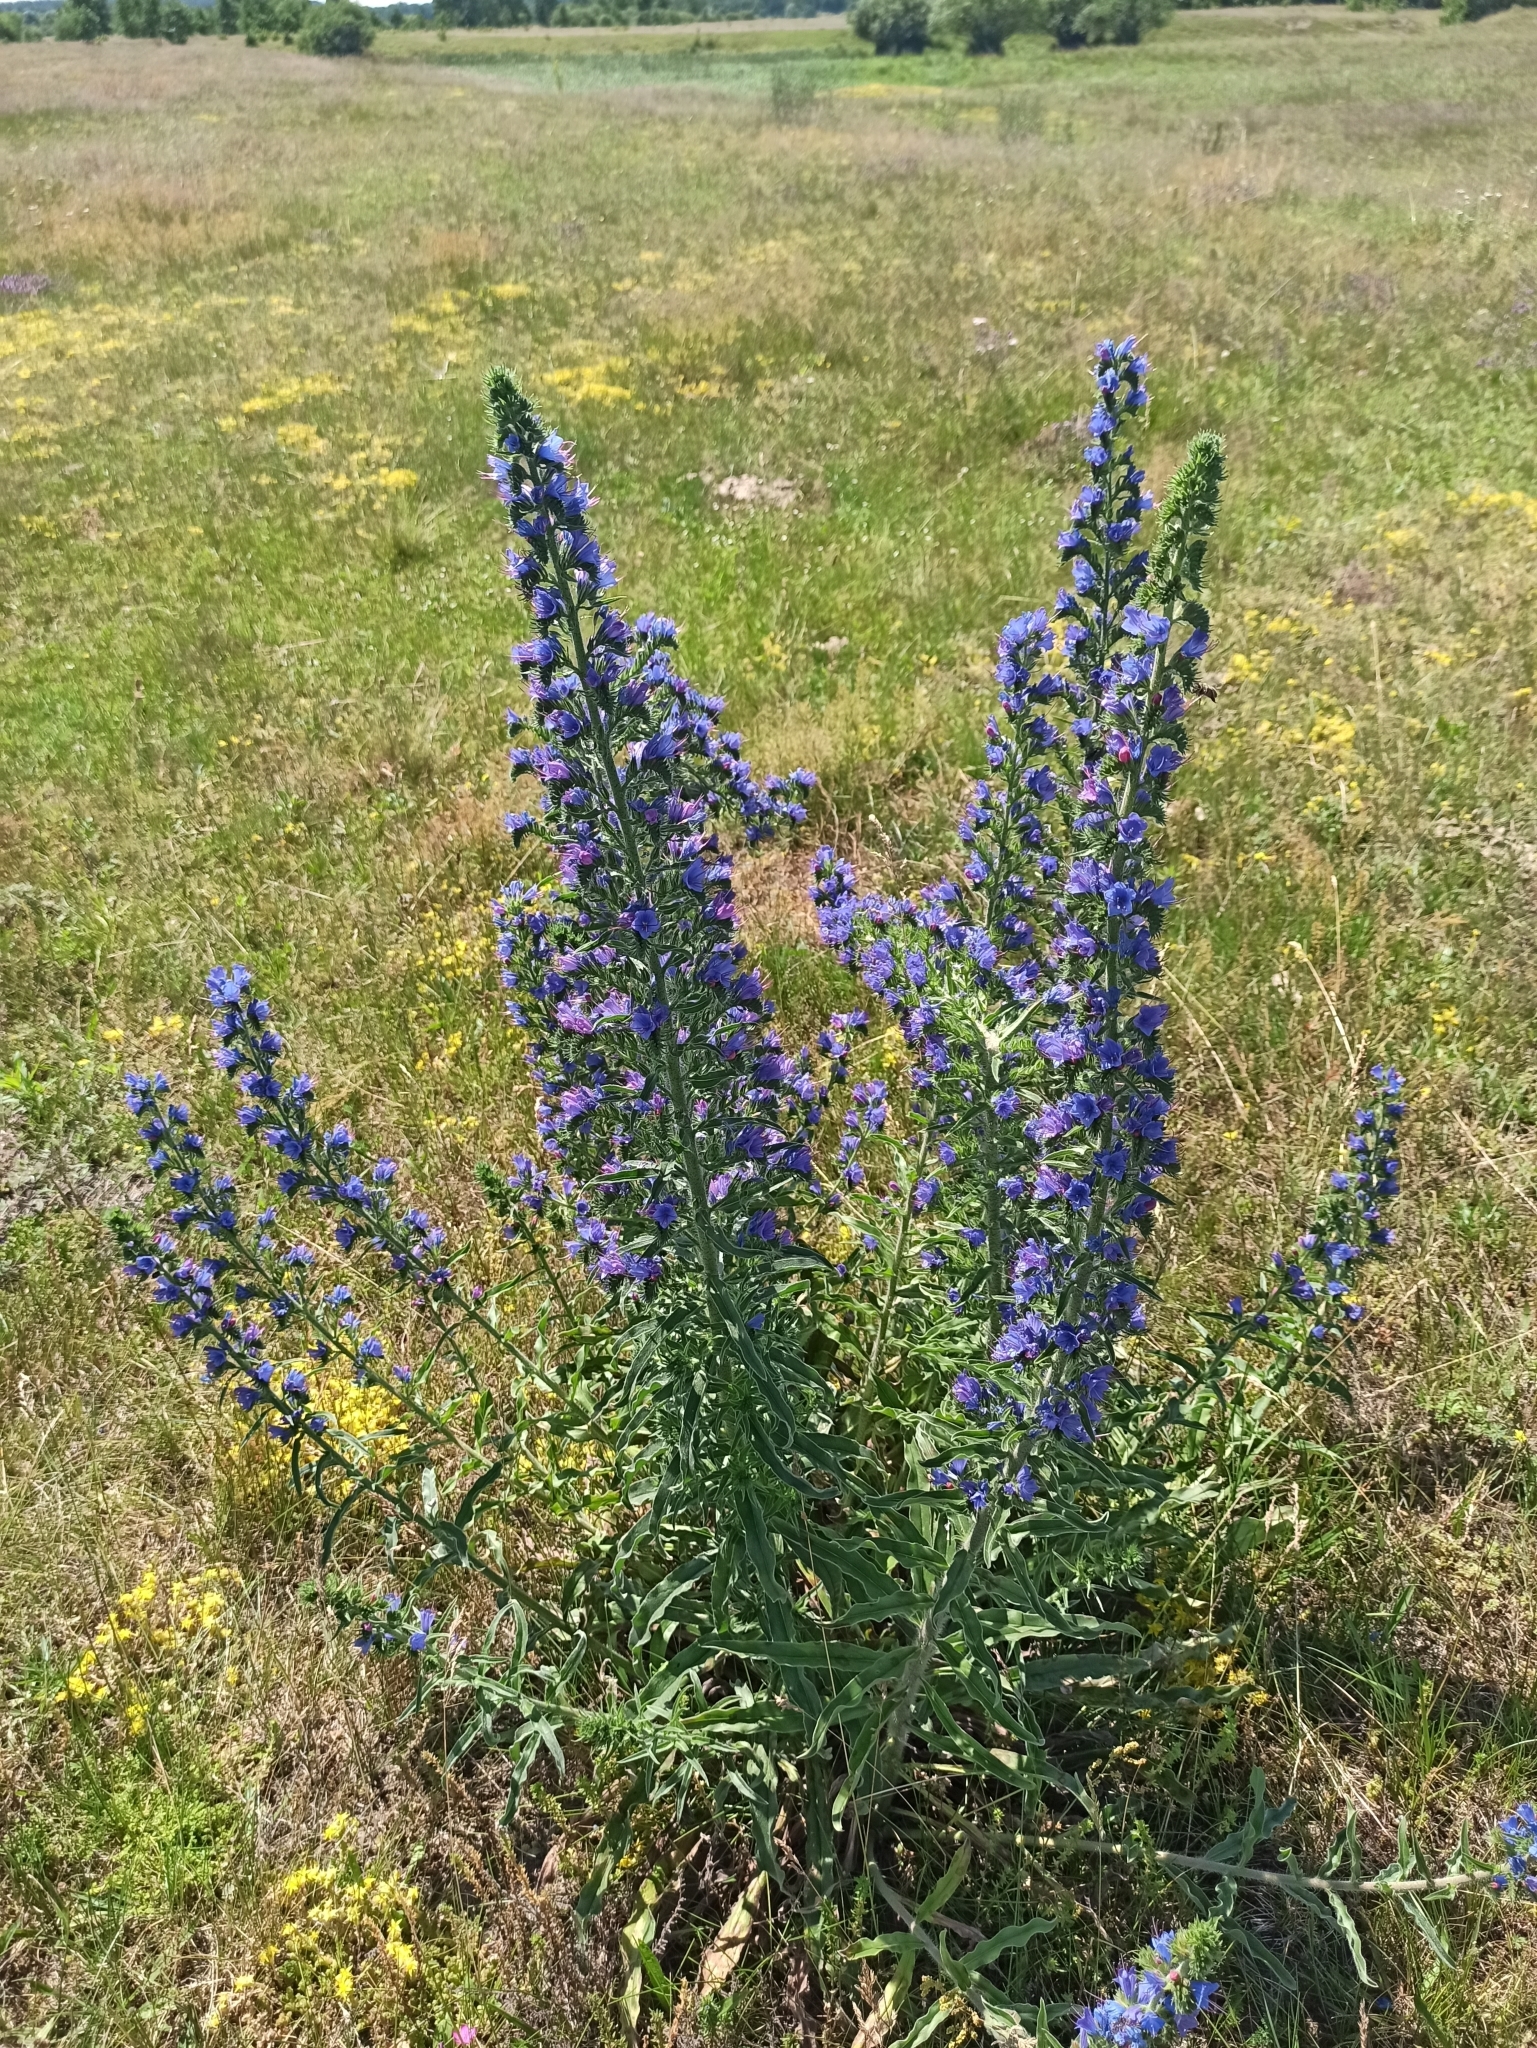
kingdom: Plantae
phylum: Tracheophyta
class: Magnoliopsida
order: Boraginales
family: Boraginaceae
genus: Echium
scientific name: Echium vulgare
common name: Common viper's bugloss
